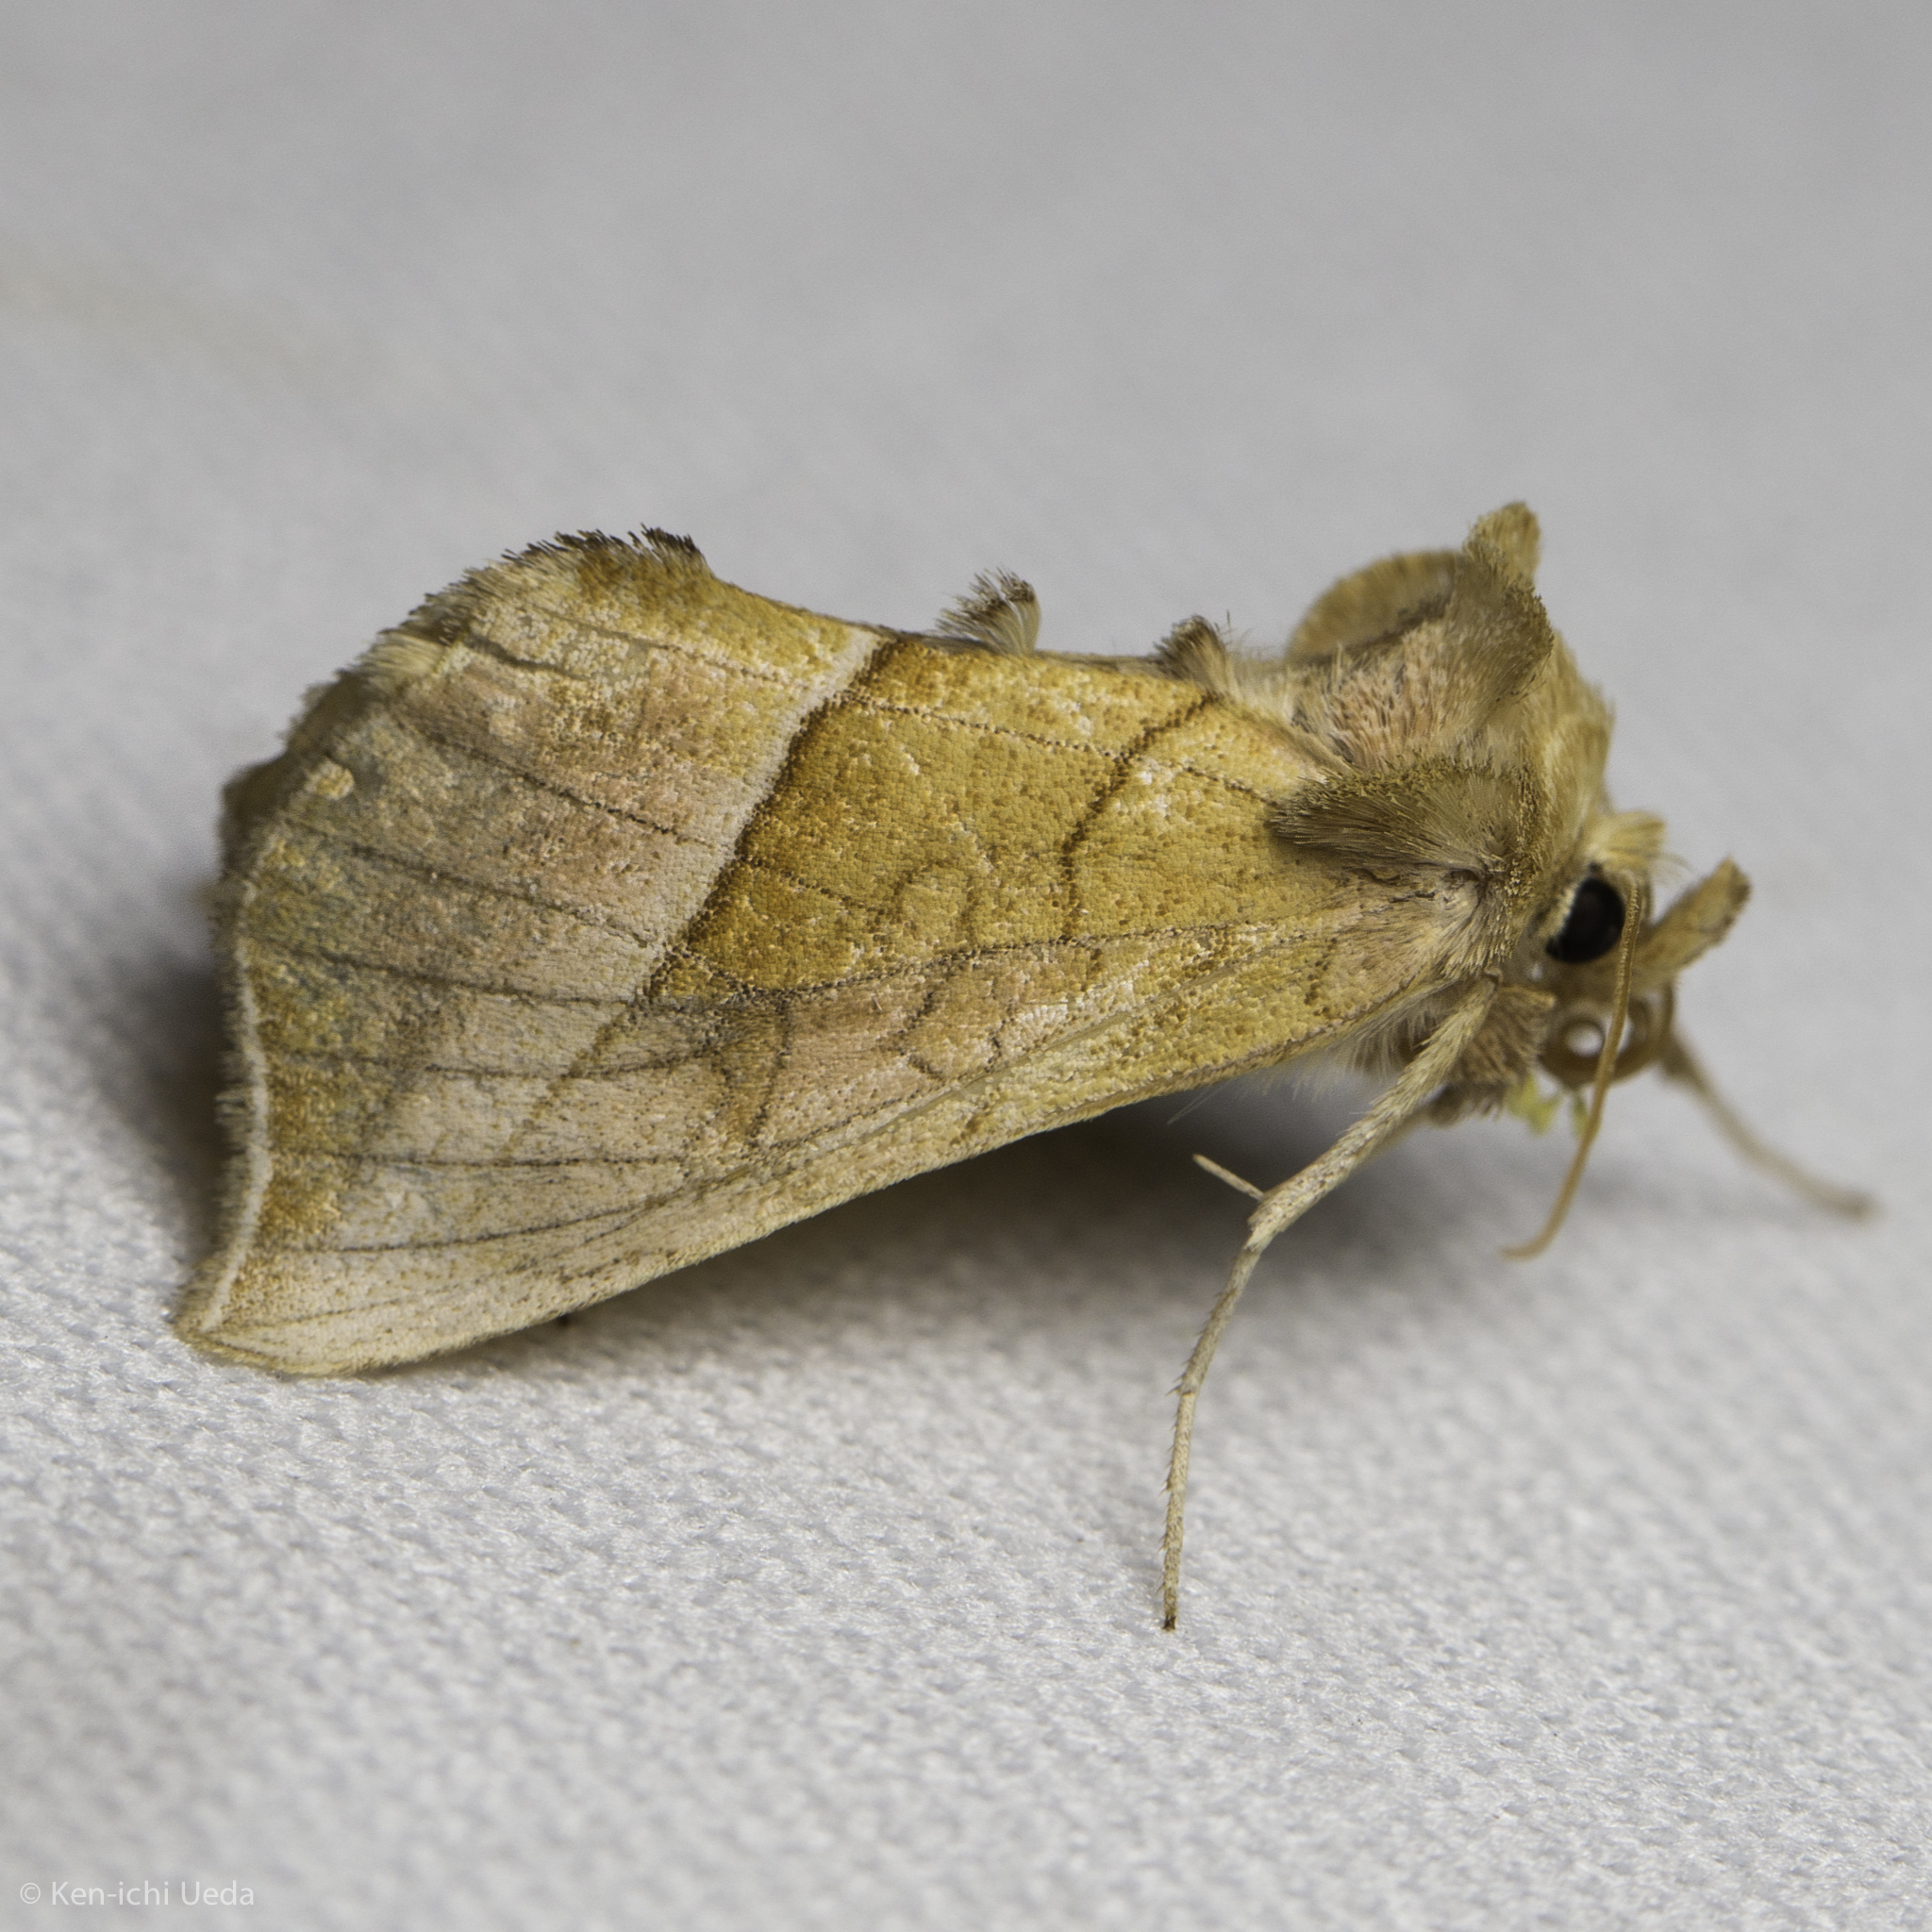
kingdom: Animalia
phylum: Arthropoda
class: Insecta
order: Lepidoptera
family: Noctuidae
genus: Pseudeva
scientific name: Pseudeva palligera
